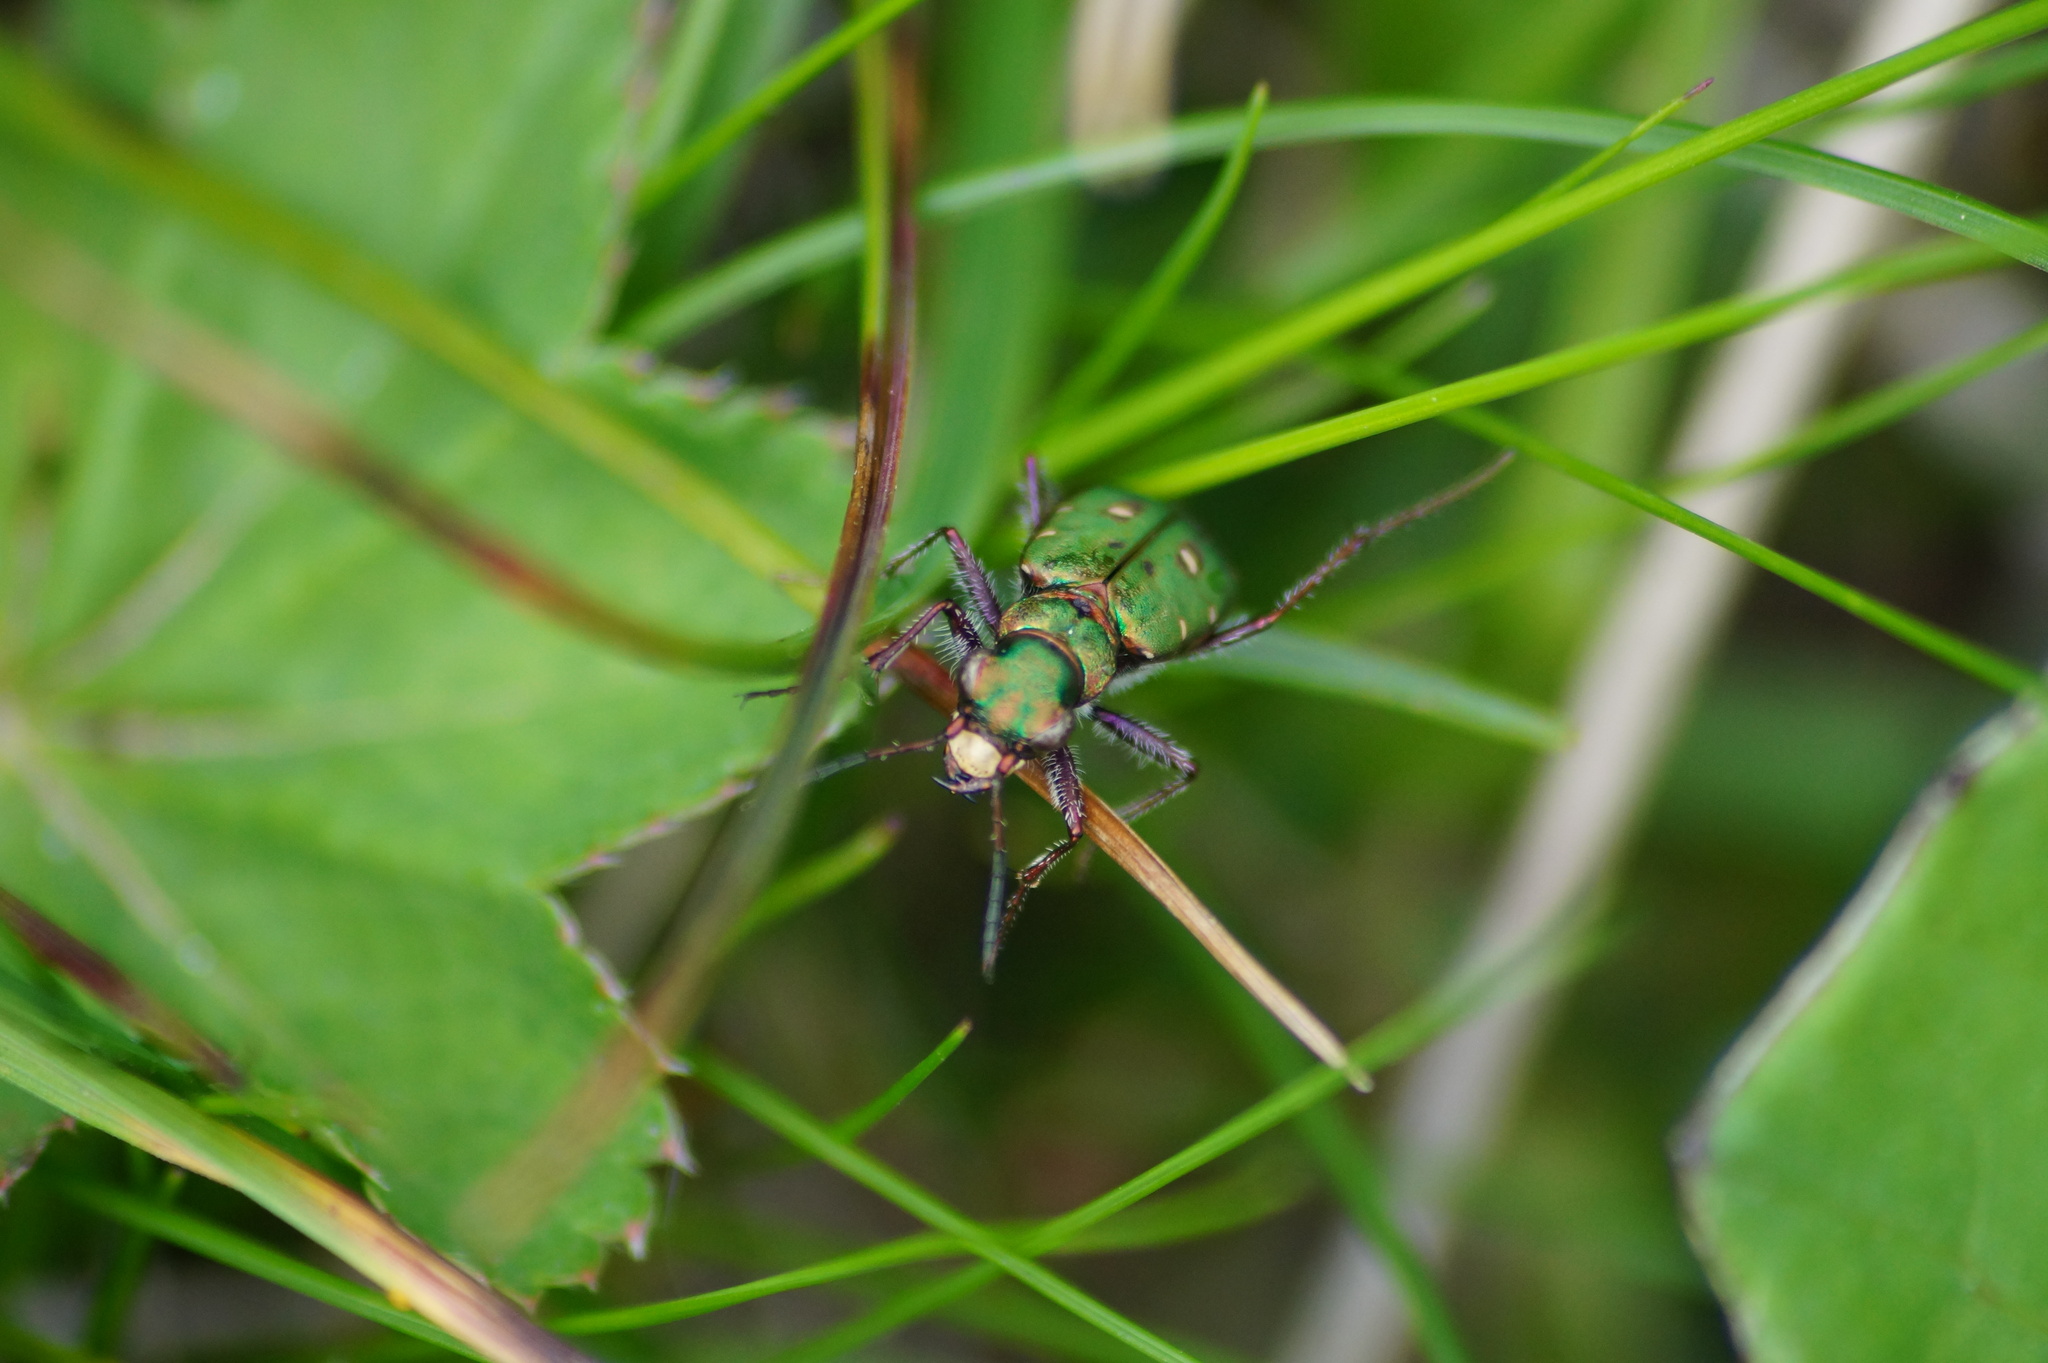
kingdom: Animalia
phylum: Arthropoda
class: Insecta
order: Coleoptera
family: Carabidae
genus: Cicindela
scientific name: Cicindela campestris
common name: Common tiger beetle
